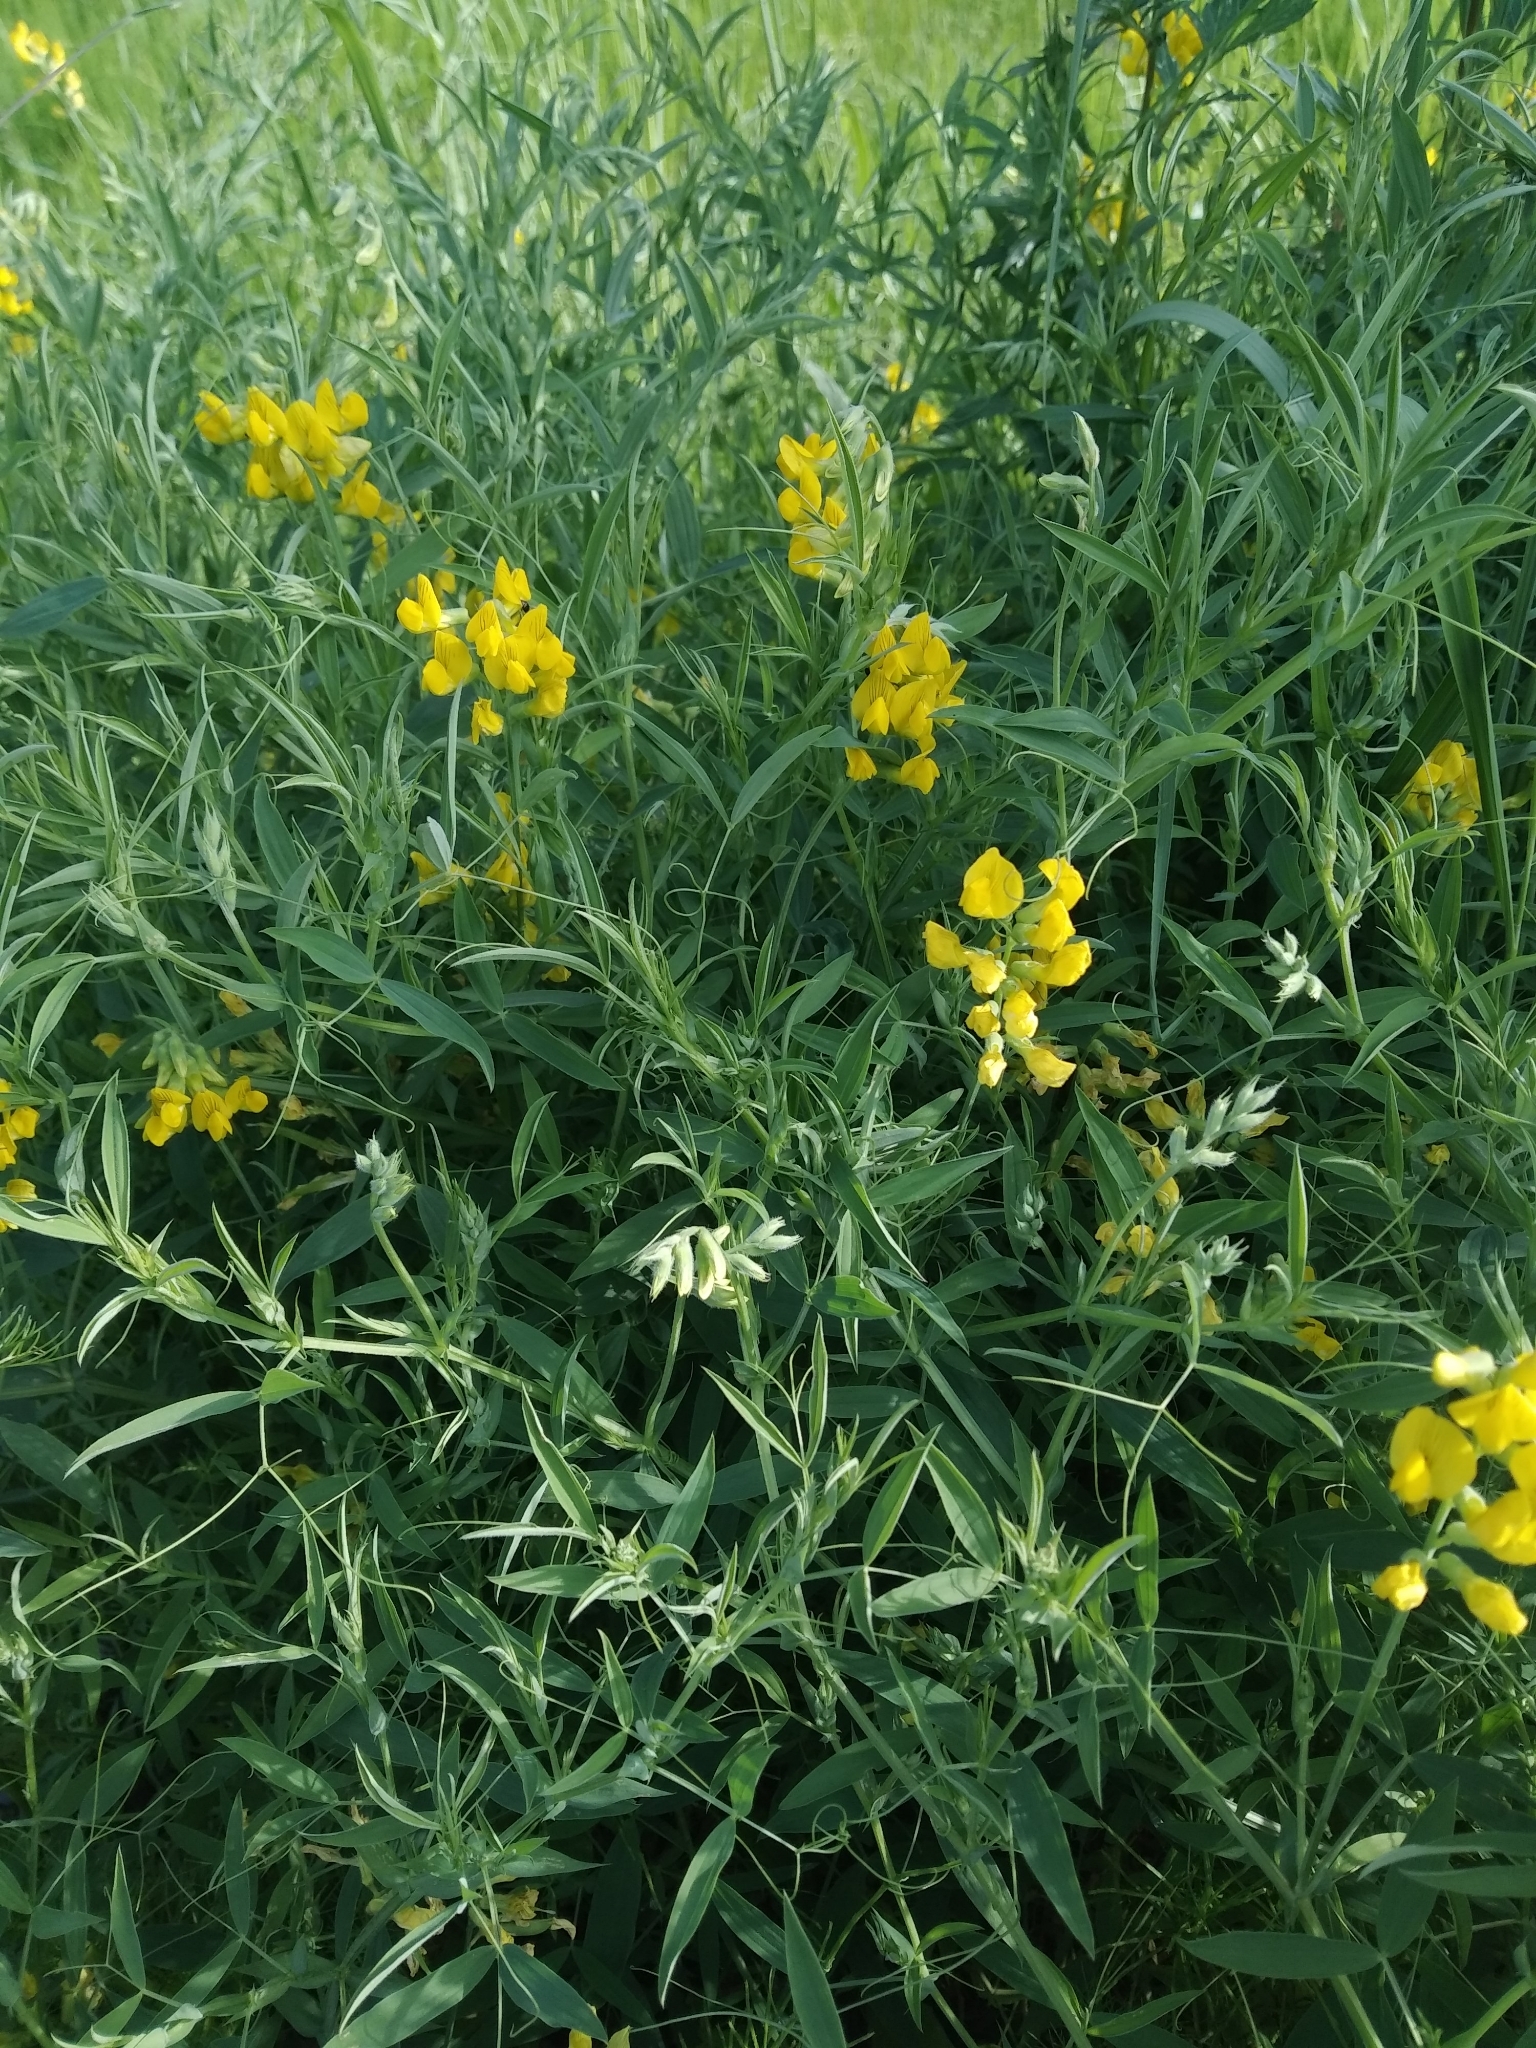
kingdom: Plantae
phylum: Tracheophyta
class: Magnoliopsida
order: Fabales
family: Fabaceae
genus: Lathyrus
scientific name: Lathyrus pratensis
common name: Meadow vetchling
